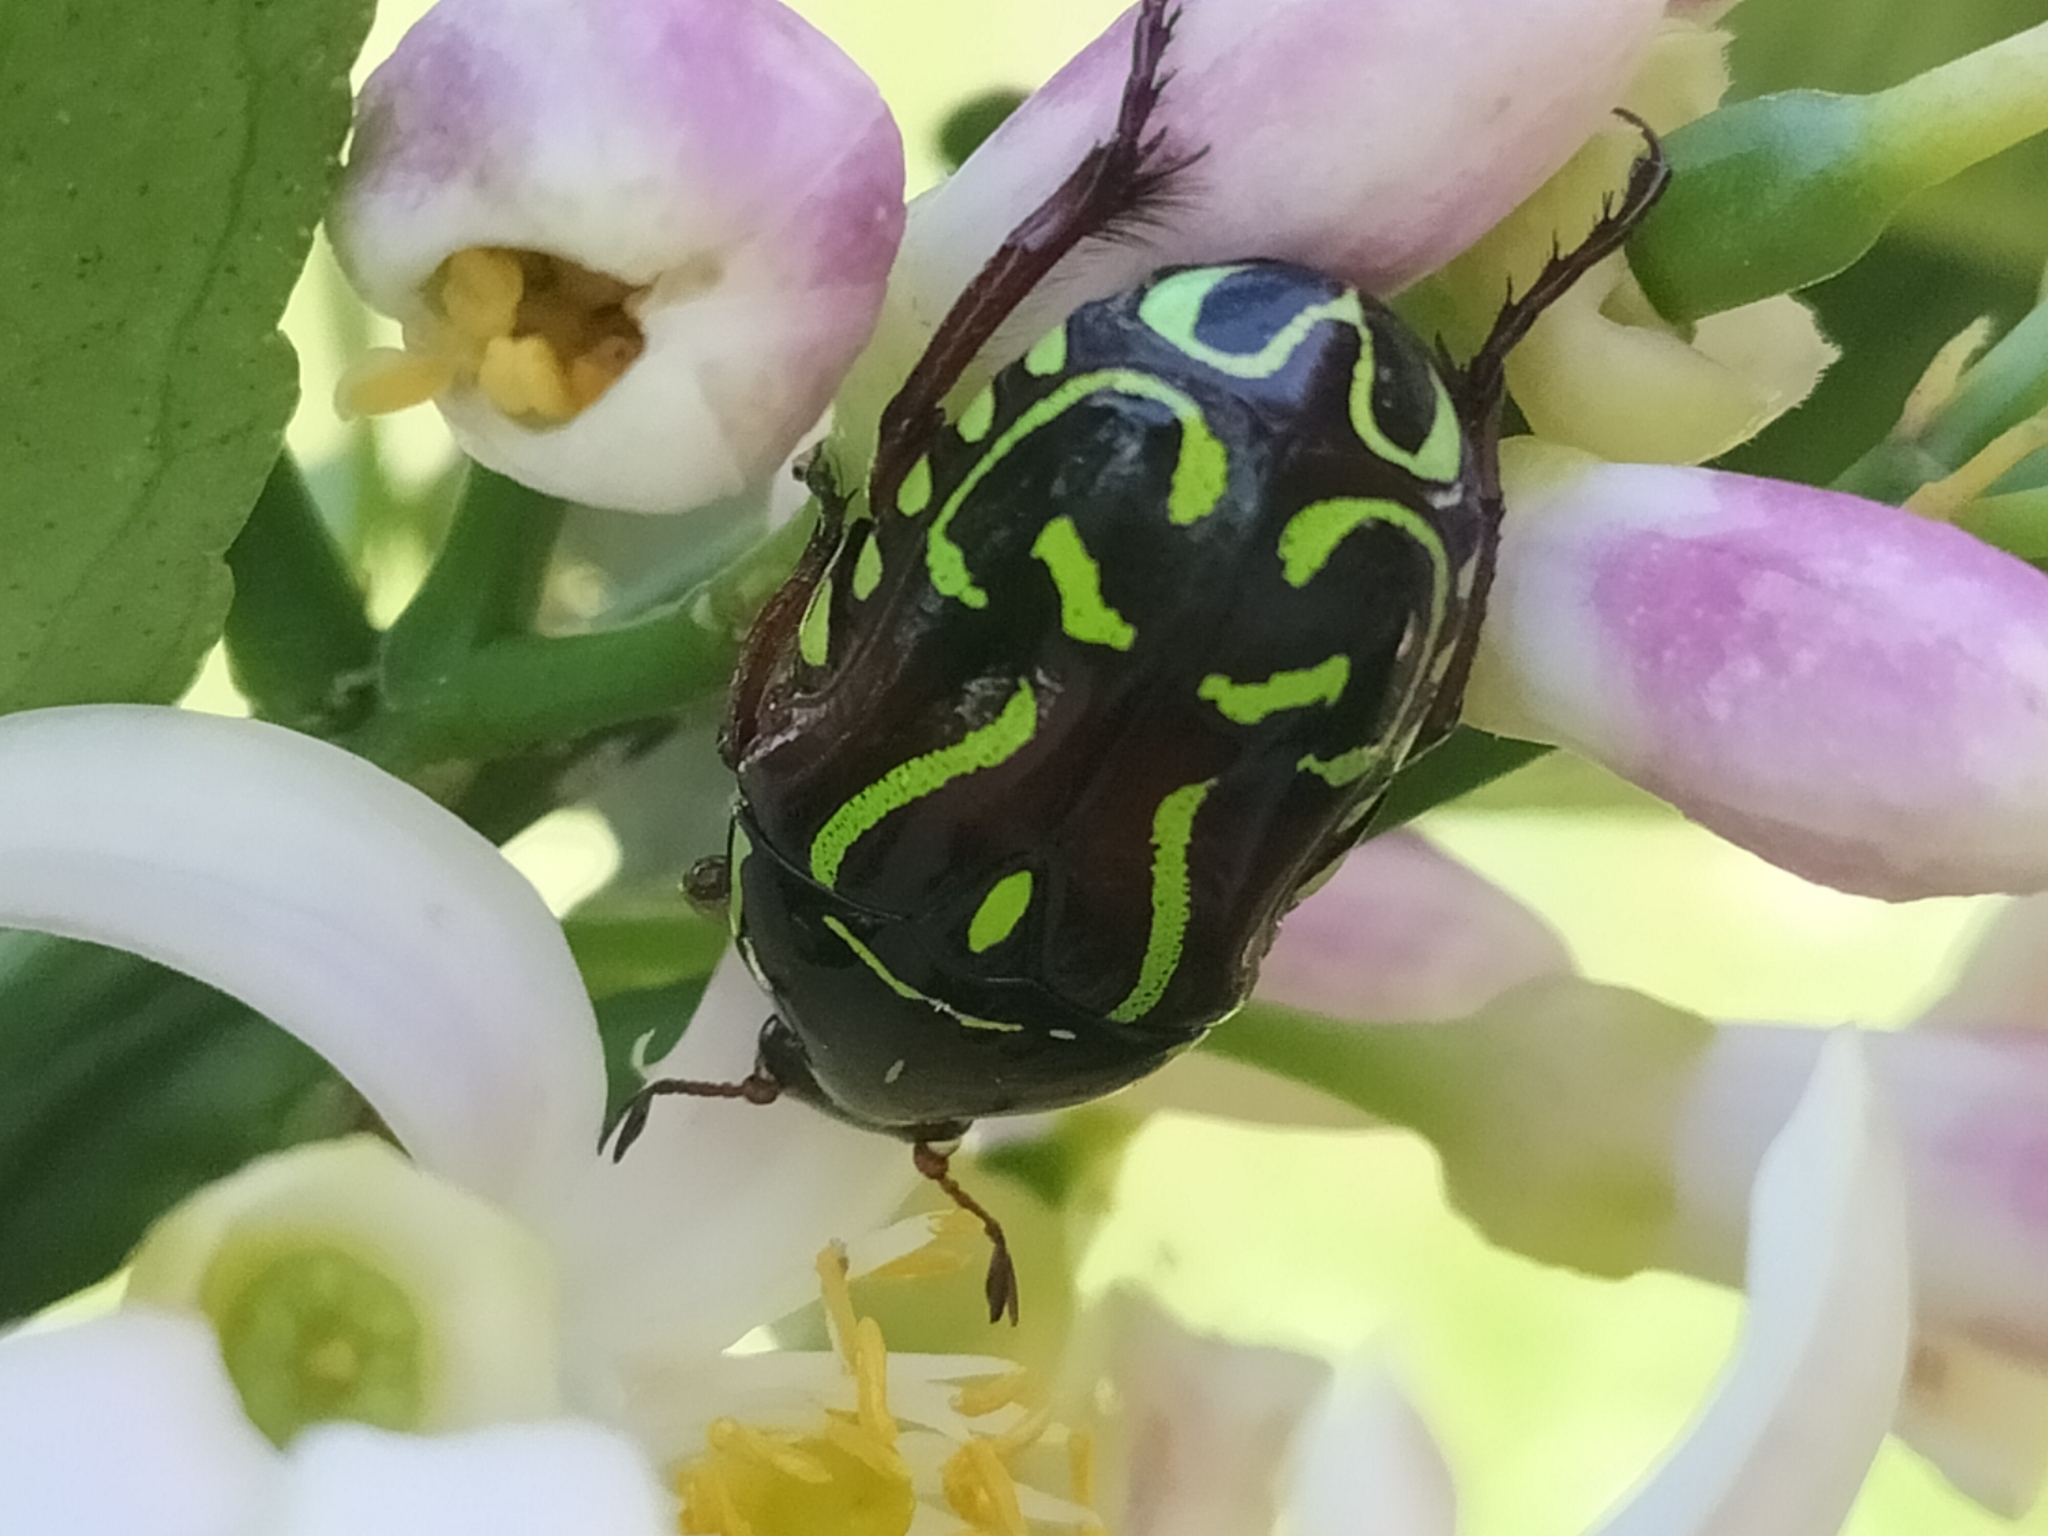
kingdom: Animalia
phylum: Arthropoda
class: Insecta
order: Coleoptera
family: Scarabaeidae
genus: Eupoecila
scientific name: Eupoecila australasiae
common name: Fiddler beetle
